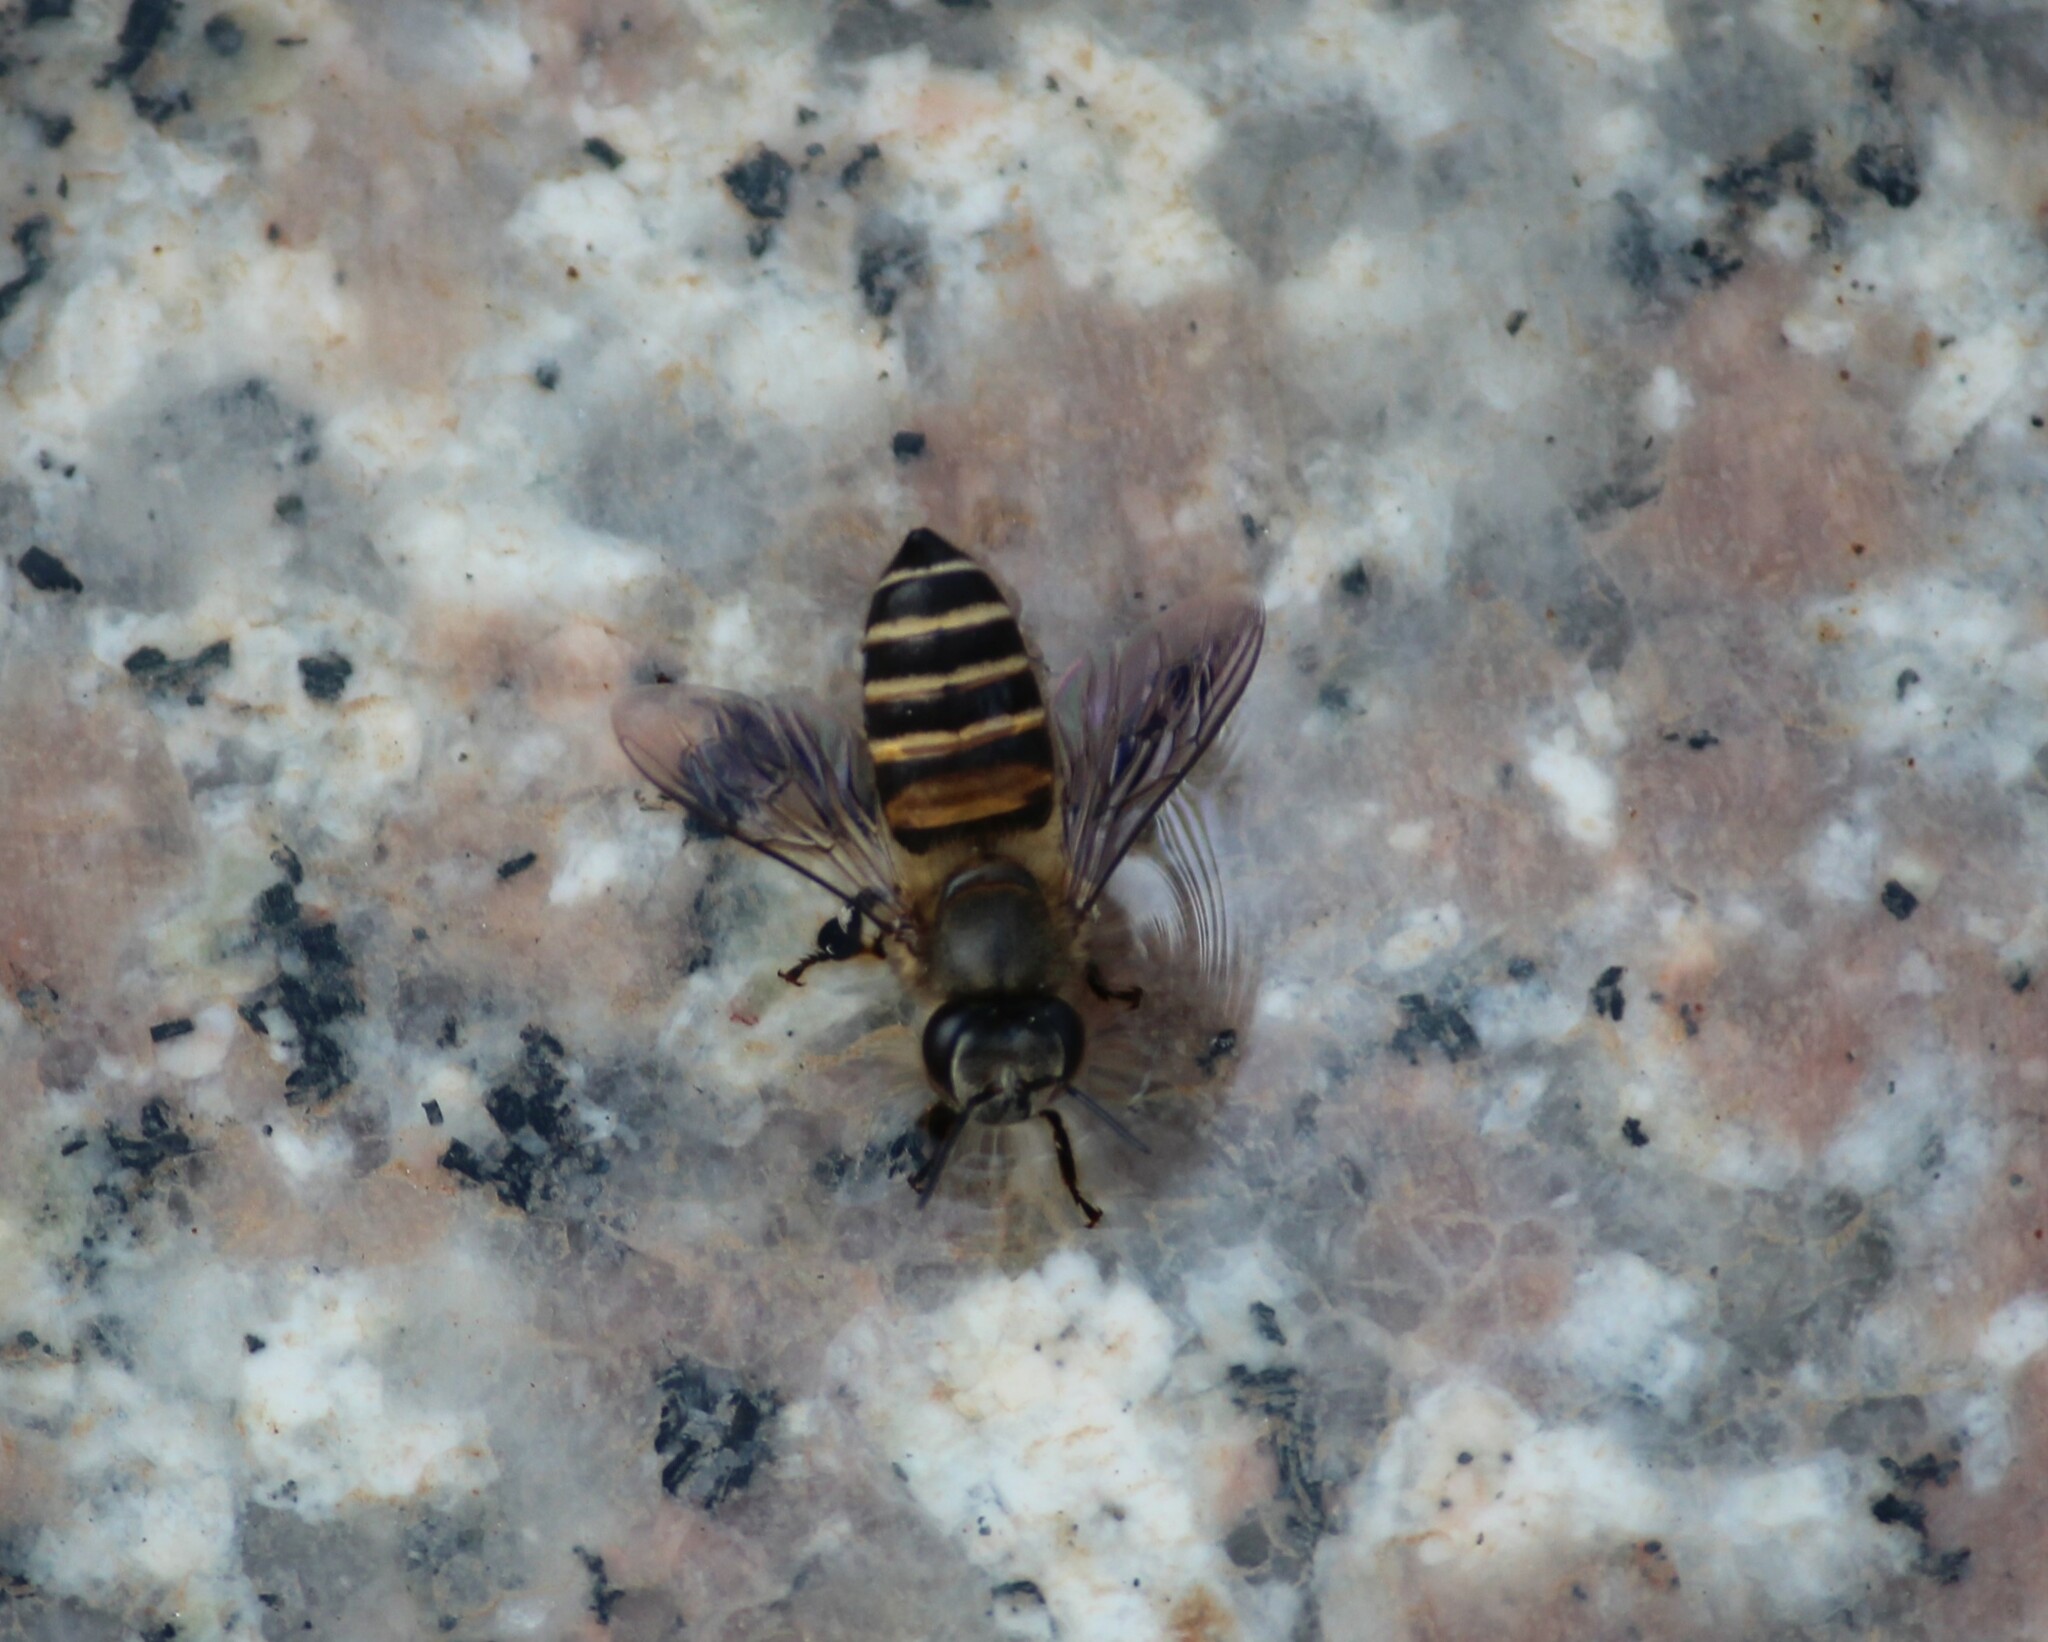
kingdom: Animalia
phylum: Arthropoda
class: Insecta
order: Hymenoptera
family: Apidae
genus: Apis
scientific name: Apis cerana
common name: Honey bee
